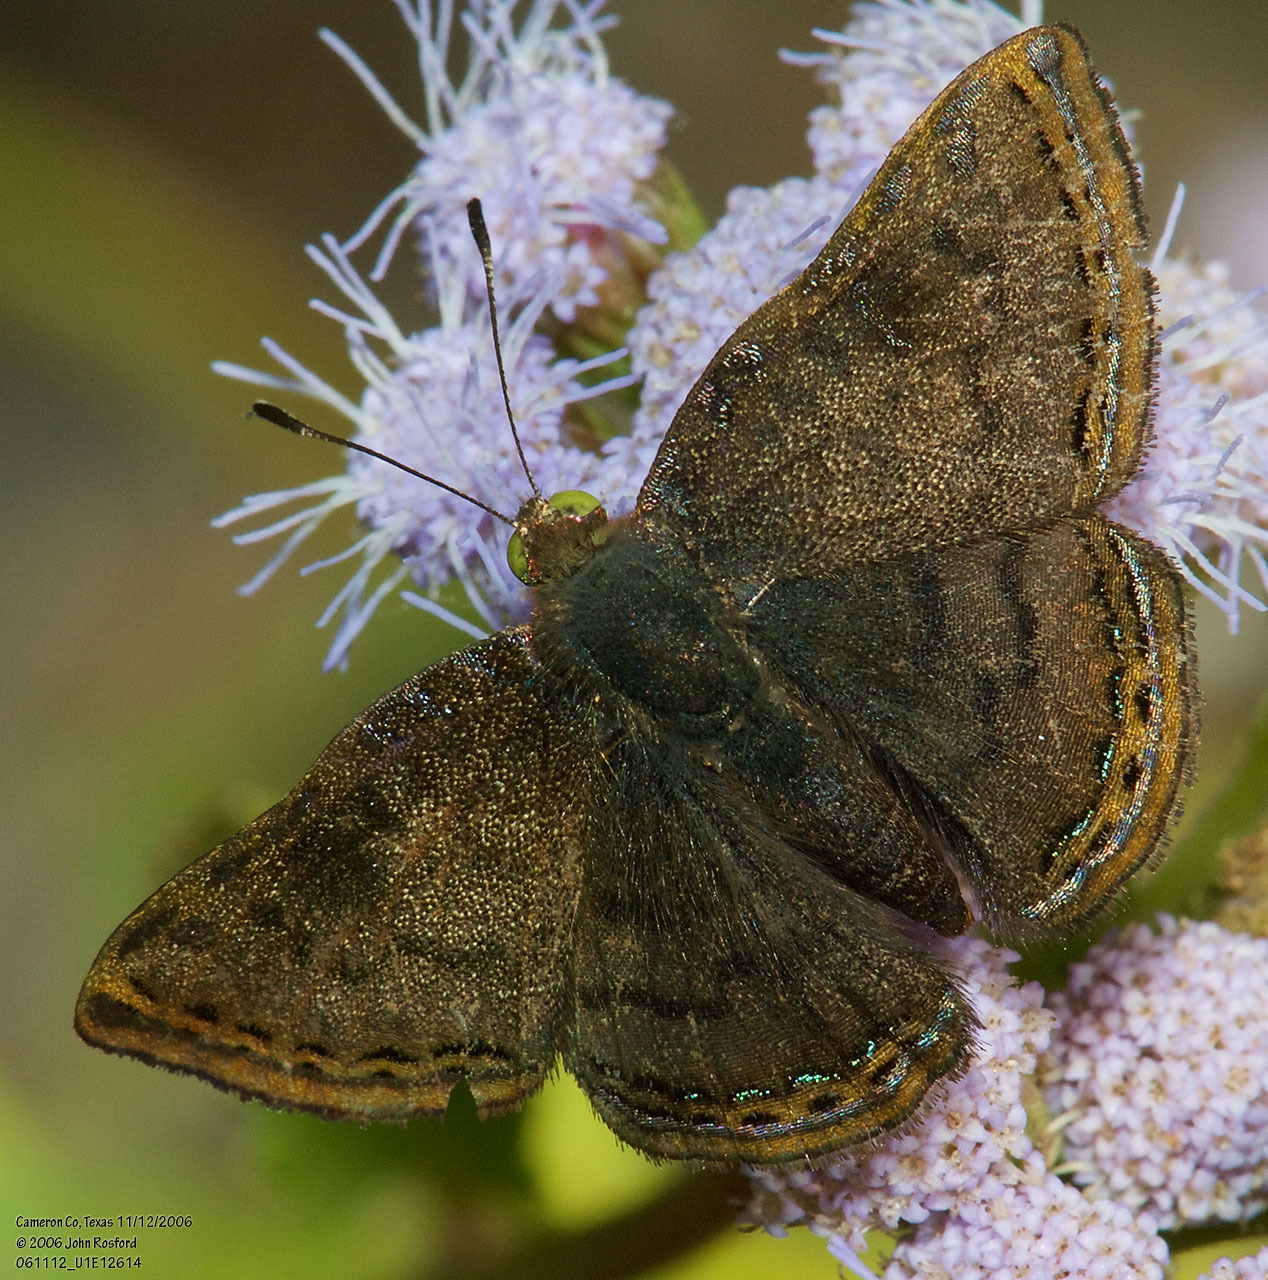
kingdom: Animalia
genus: Caria
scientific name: Caria ino
